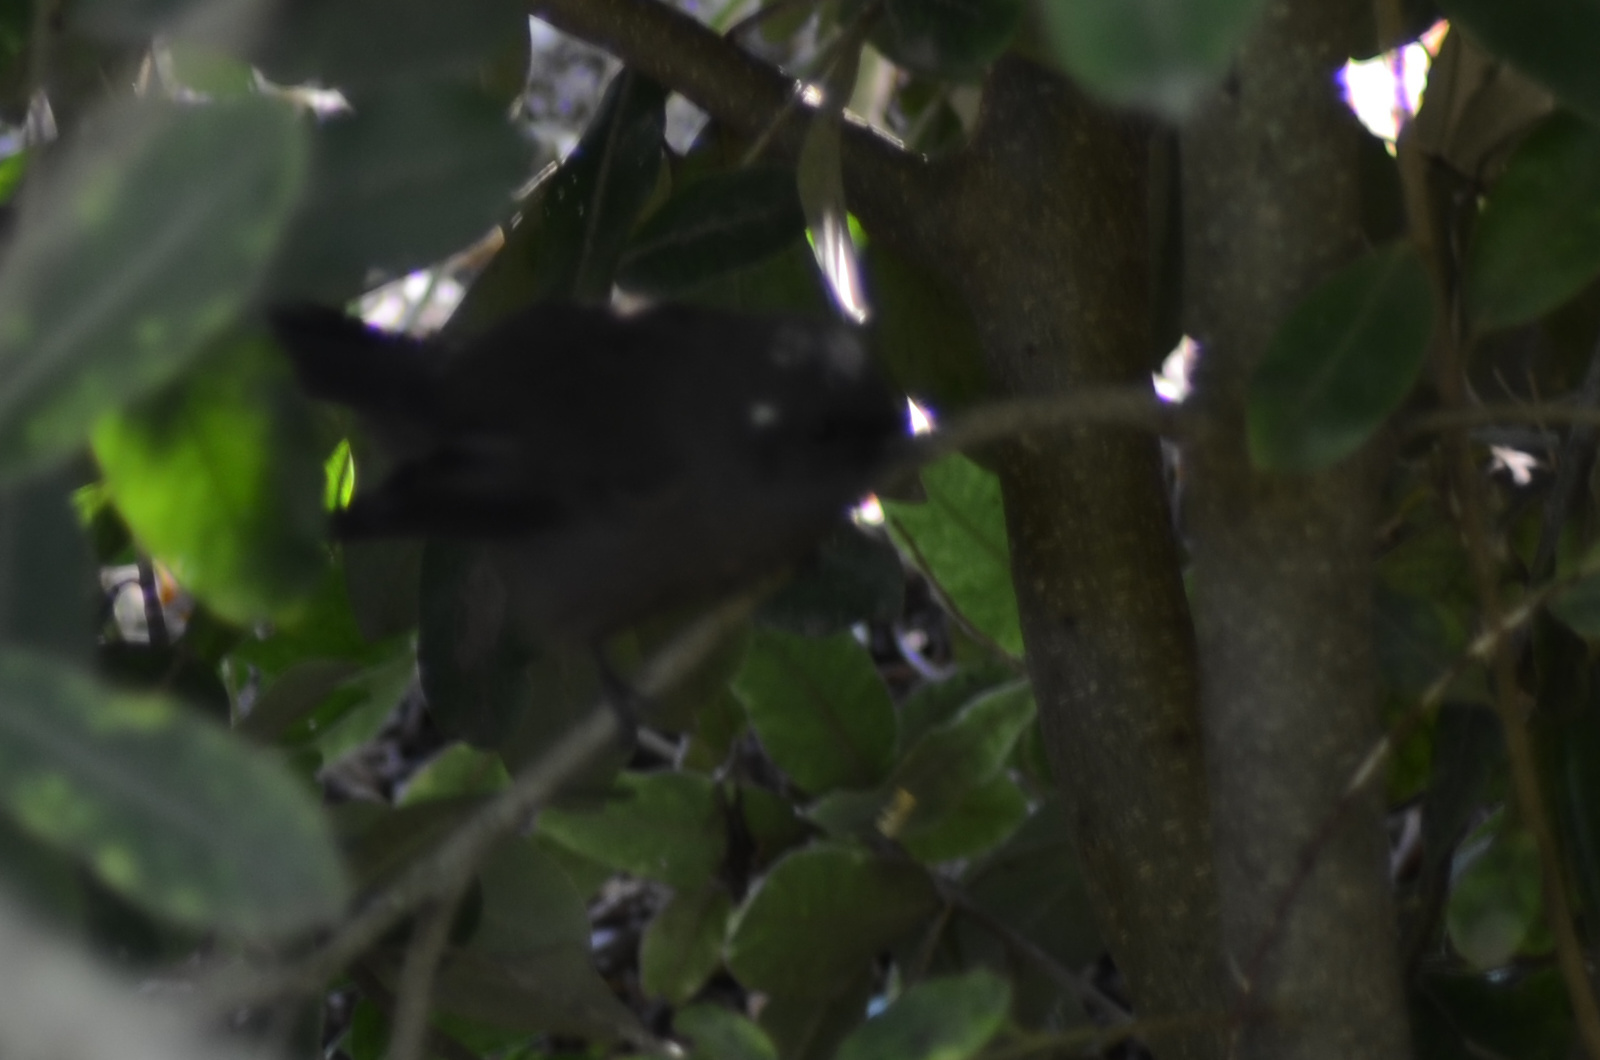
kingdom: Animalia
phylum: Chordata
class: Aves
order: Passeriformes
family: Rhipiduridae
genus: Rhipidura
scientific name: Rhipidura fuliginosa
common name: New zealand fantail
